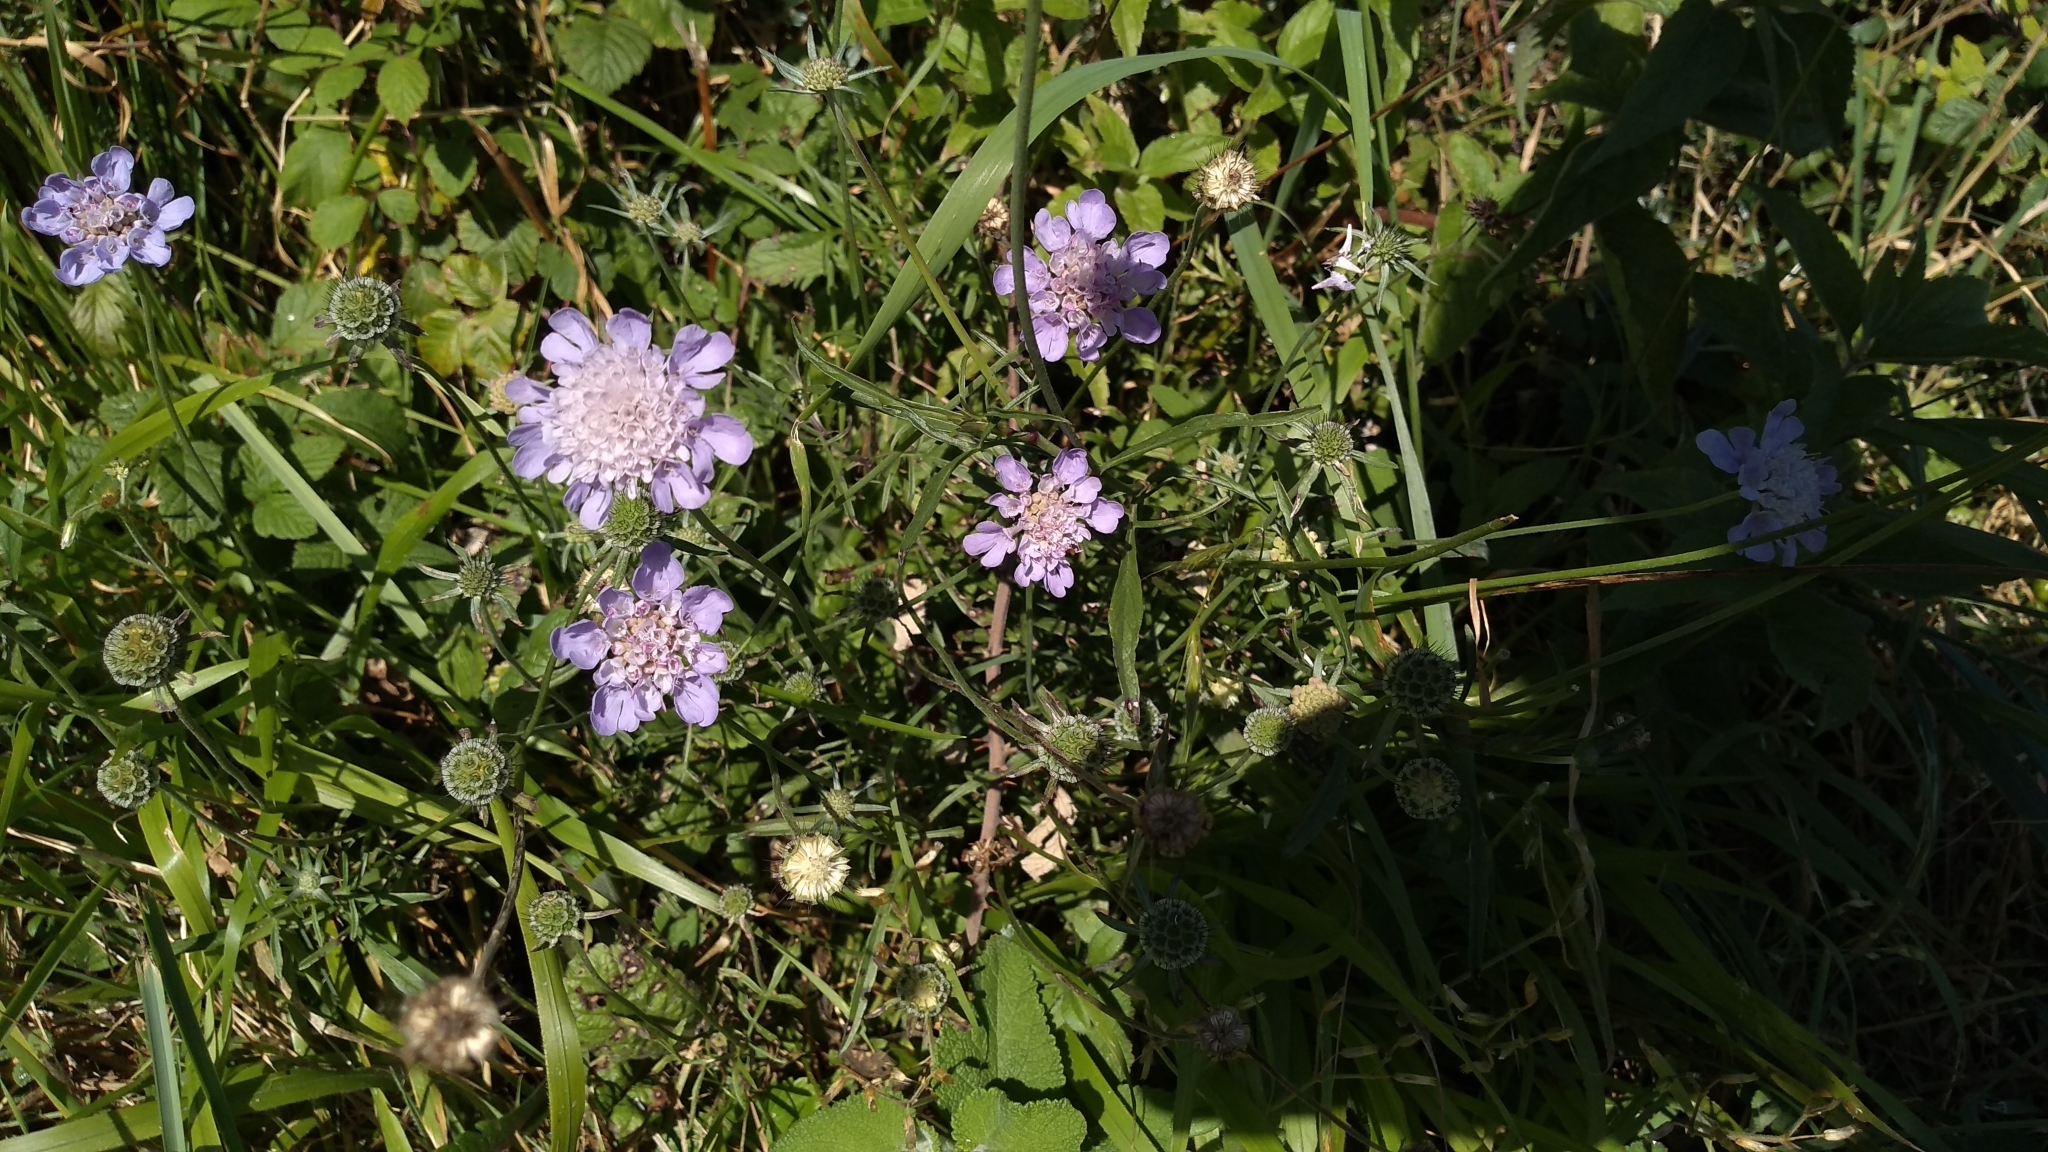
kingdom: Plantae
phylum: Tracheophyta
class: Magnoliopsida
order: Dipsacales
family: Caprifoliaceae
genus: Scabiosa
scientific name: Scabiosa columbaria
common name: Small scabious
